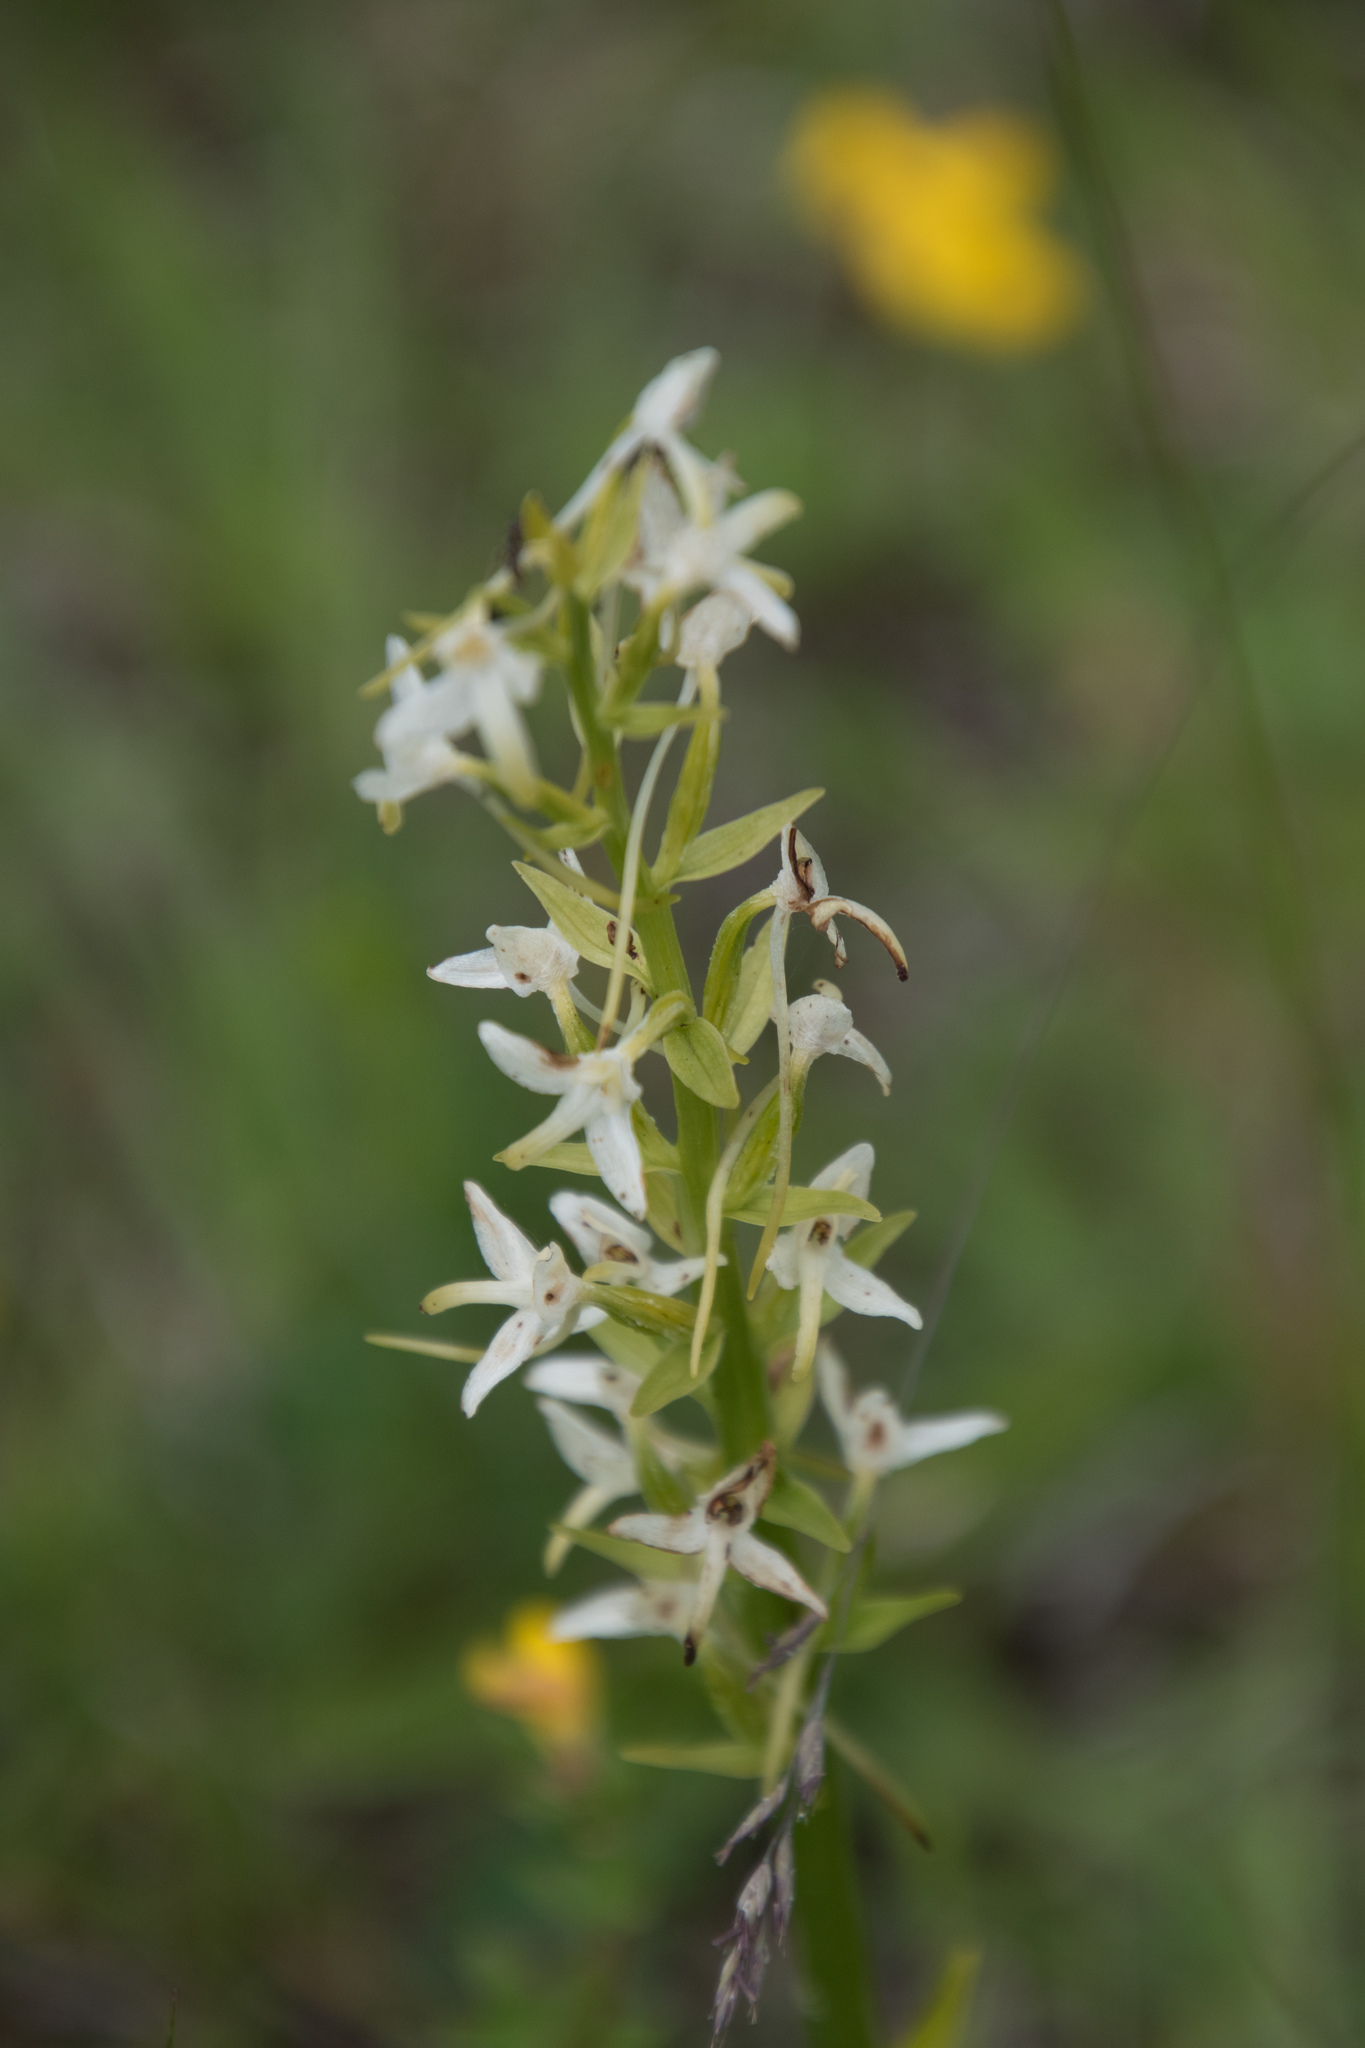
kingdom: Plantae
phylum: Tracheophyta
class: Liliopsida
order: Asparagales
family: Orchidaceae
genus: Platanthera
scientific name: Platanthera bifolia
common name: Lesser butterfly-orchid
